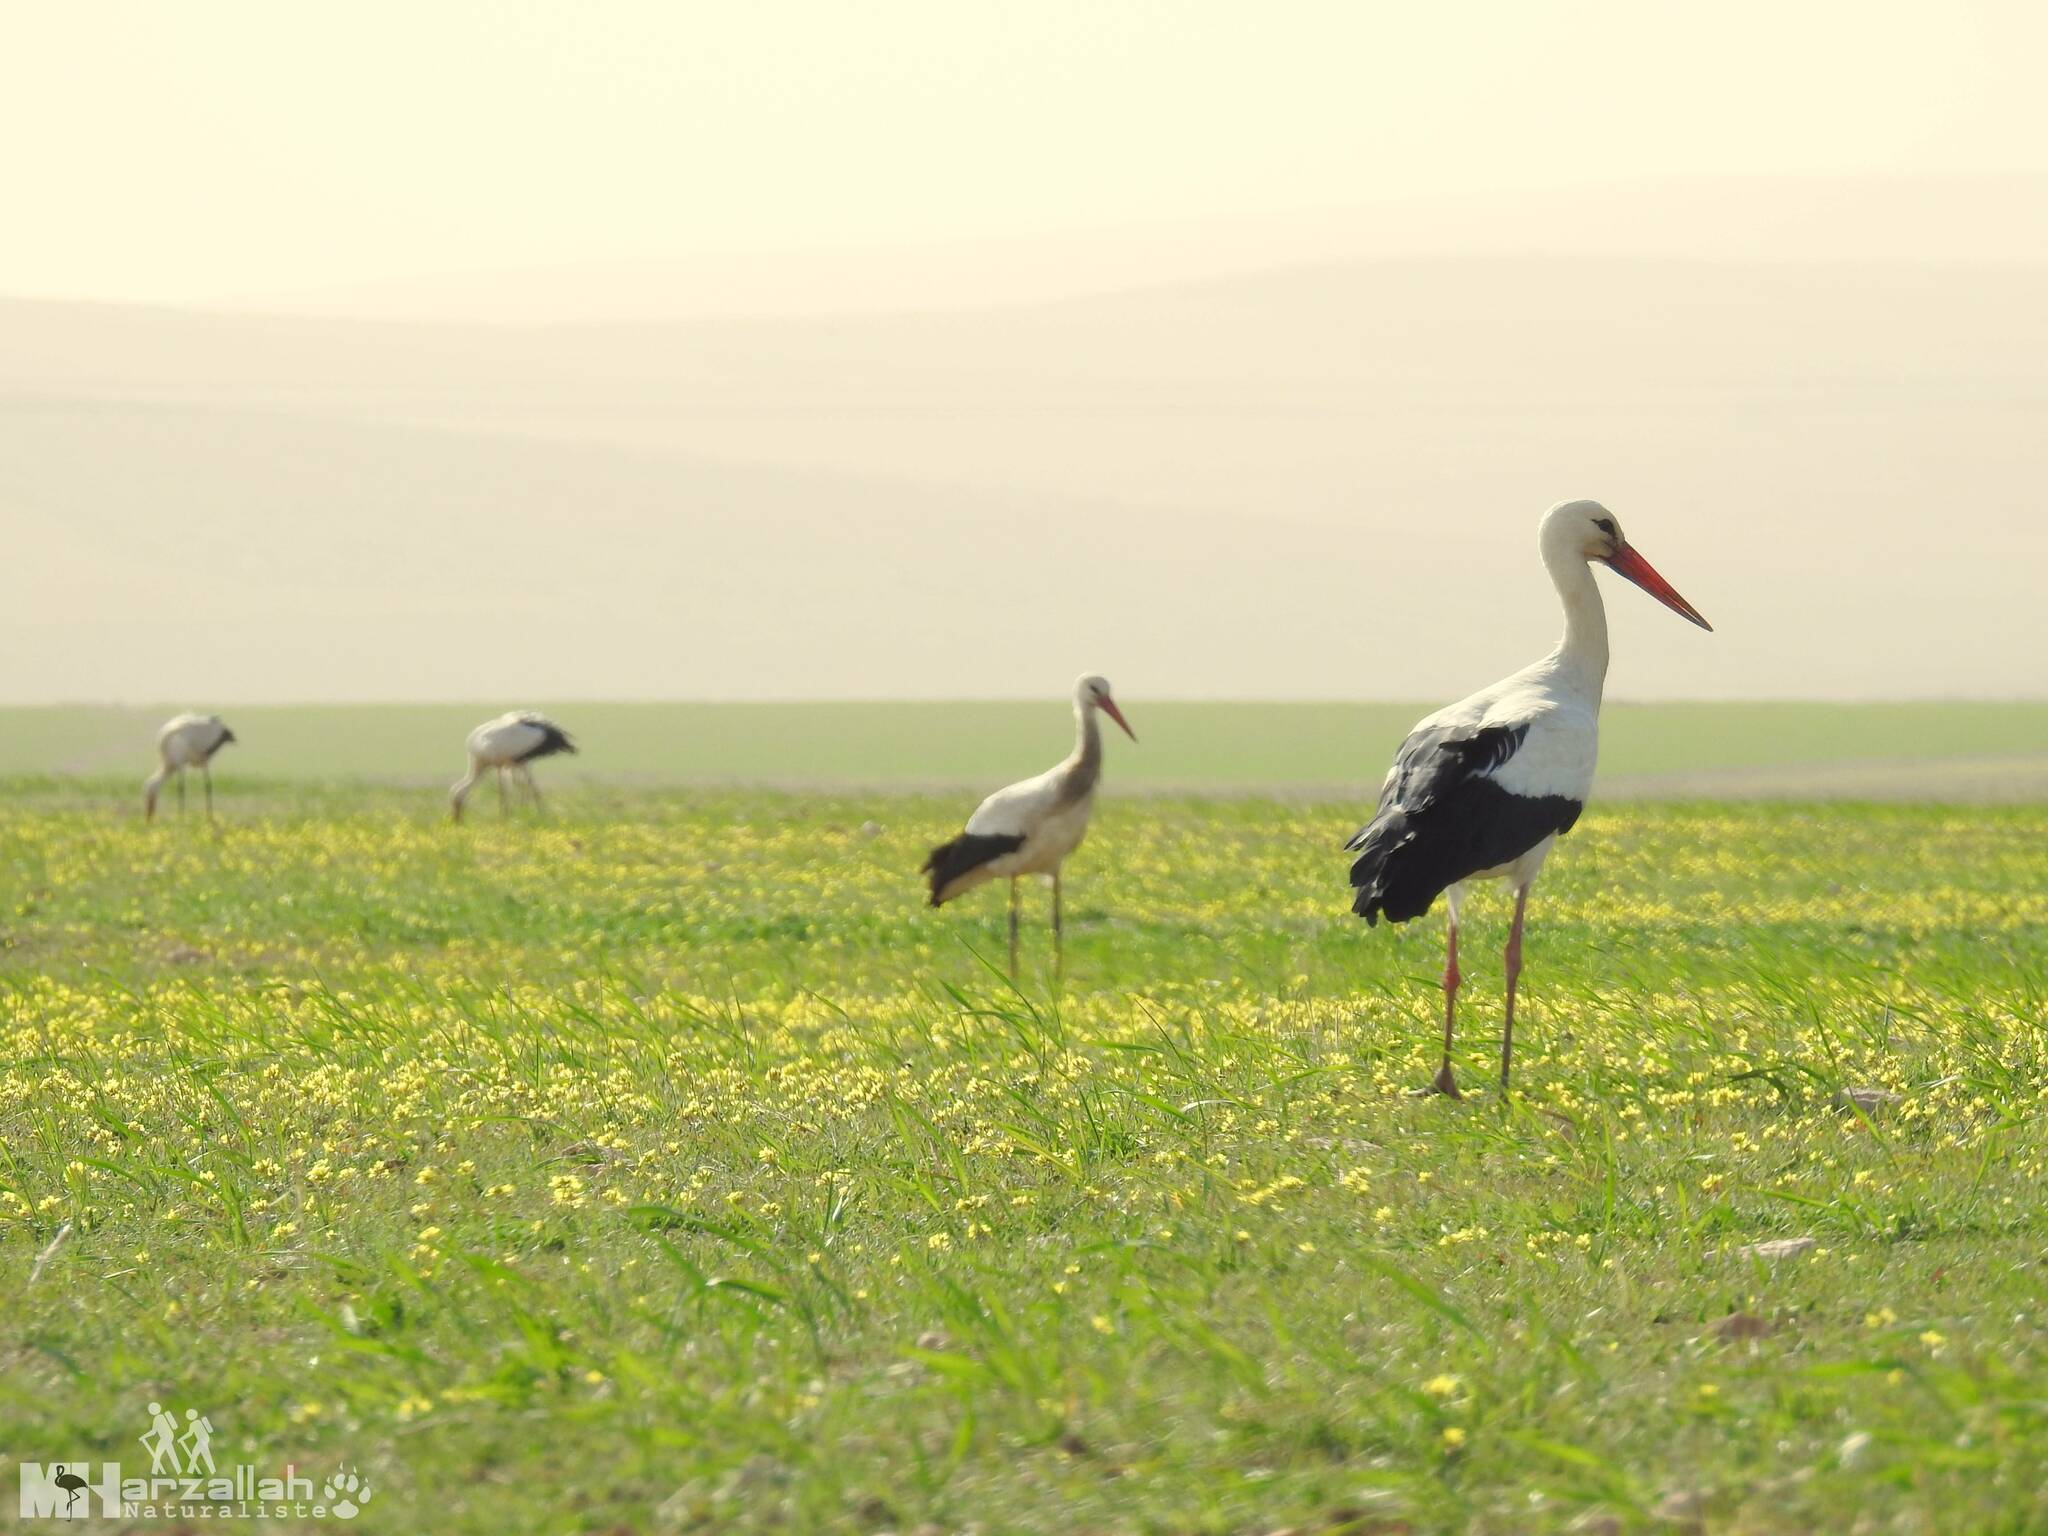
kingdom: Animalia
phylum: Chordata
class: Aves
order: Ciconiiformes
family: Ciconiidae
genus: Ciconia
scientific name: Ciconia ciconia
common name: White stork
